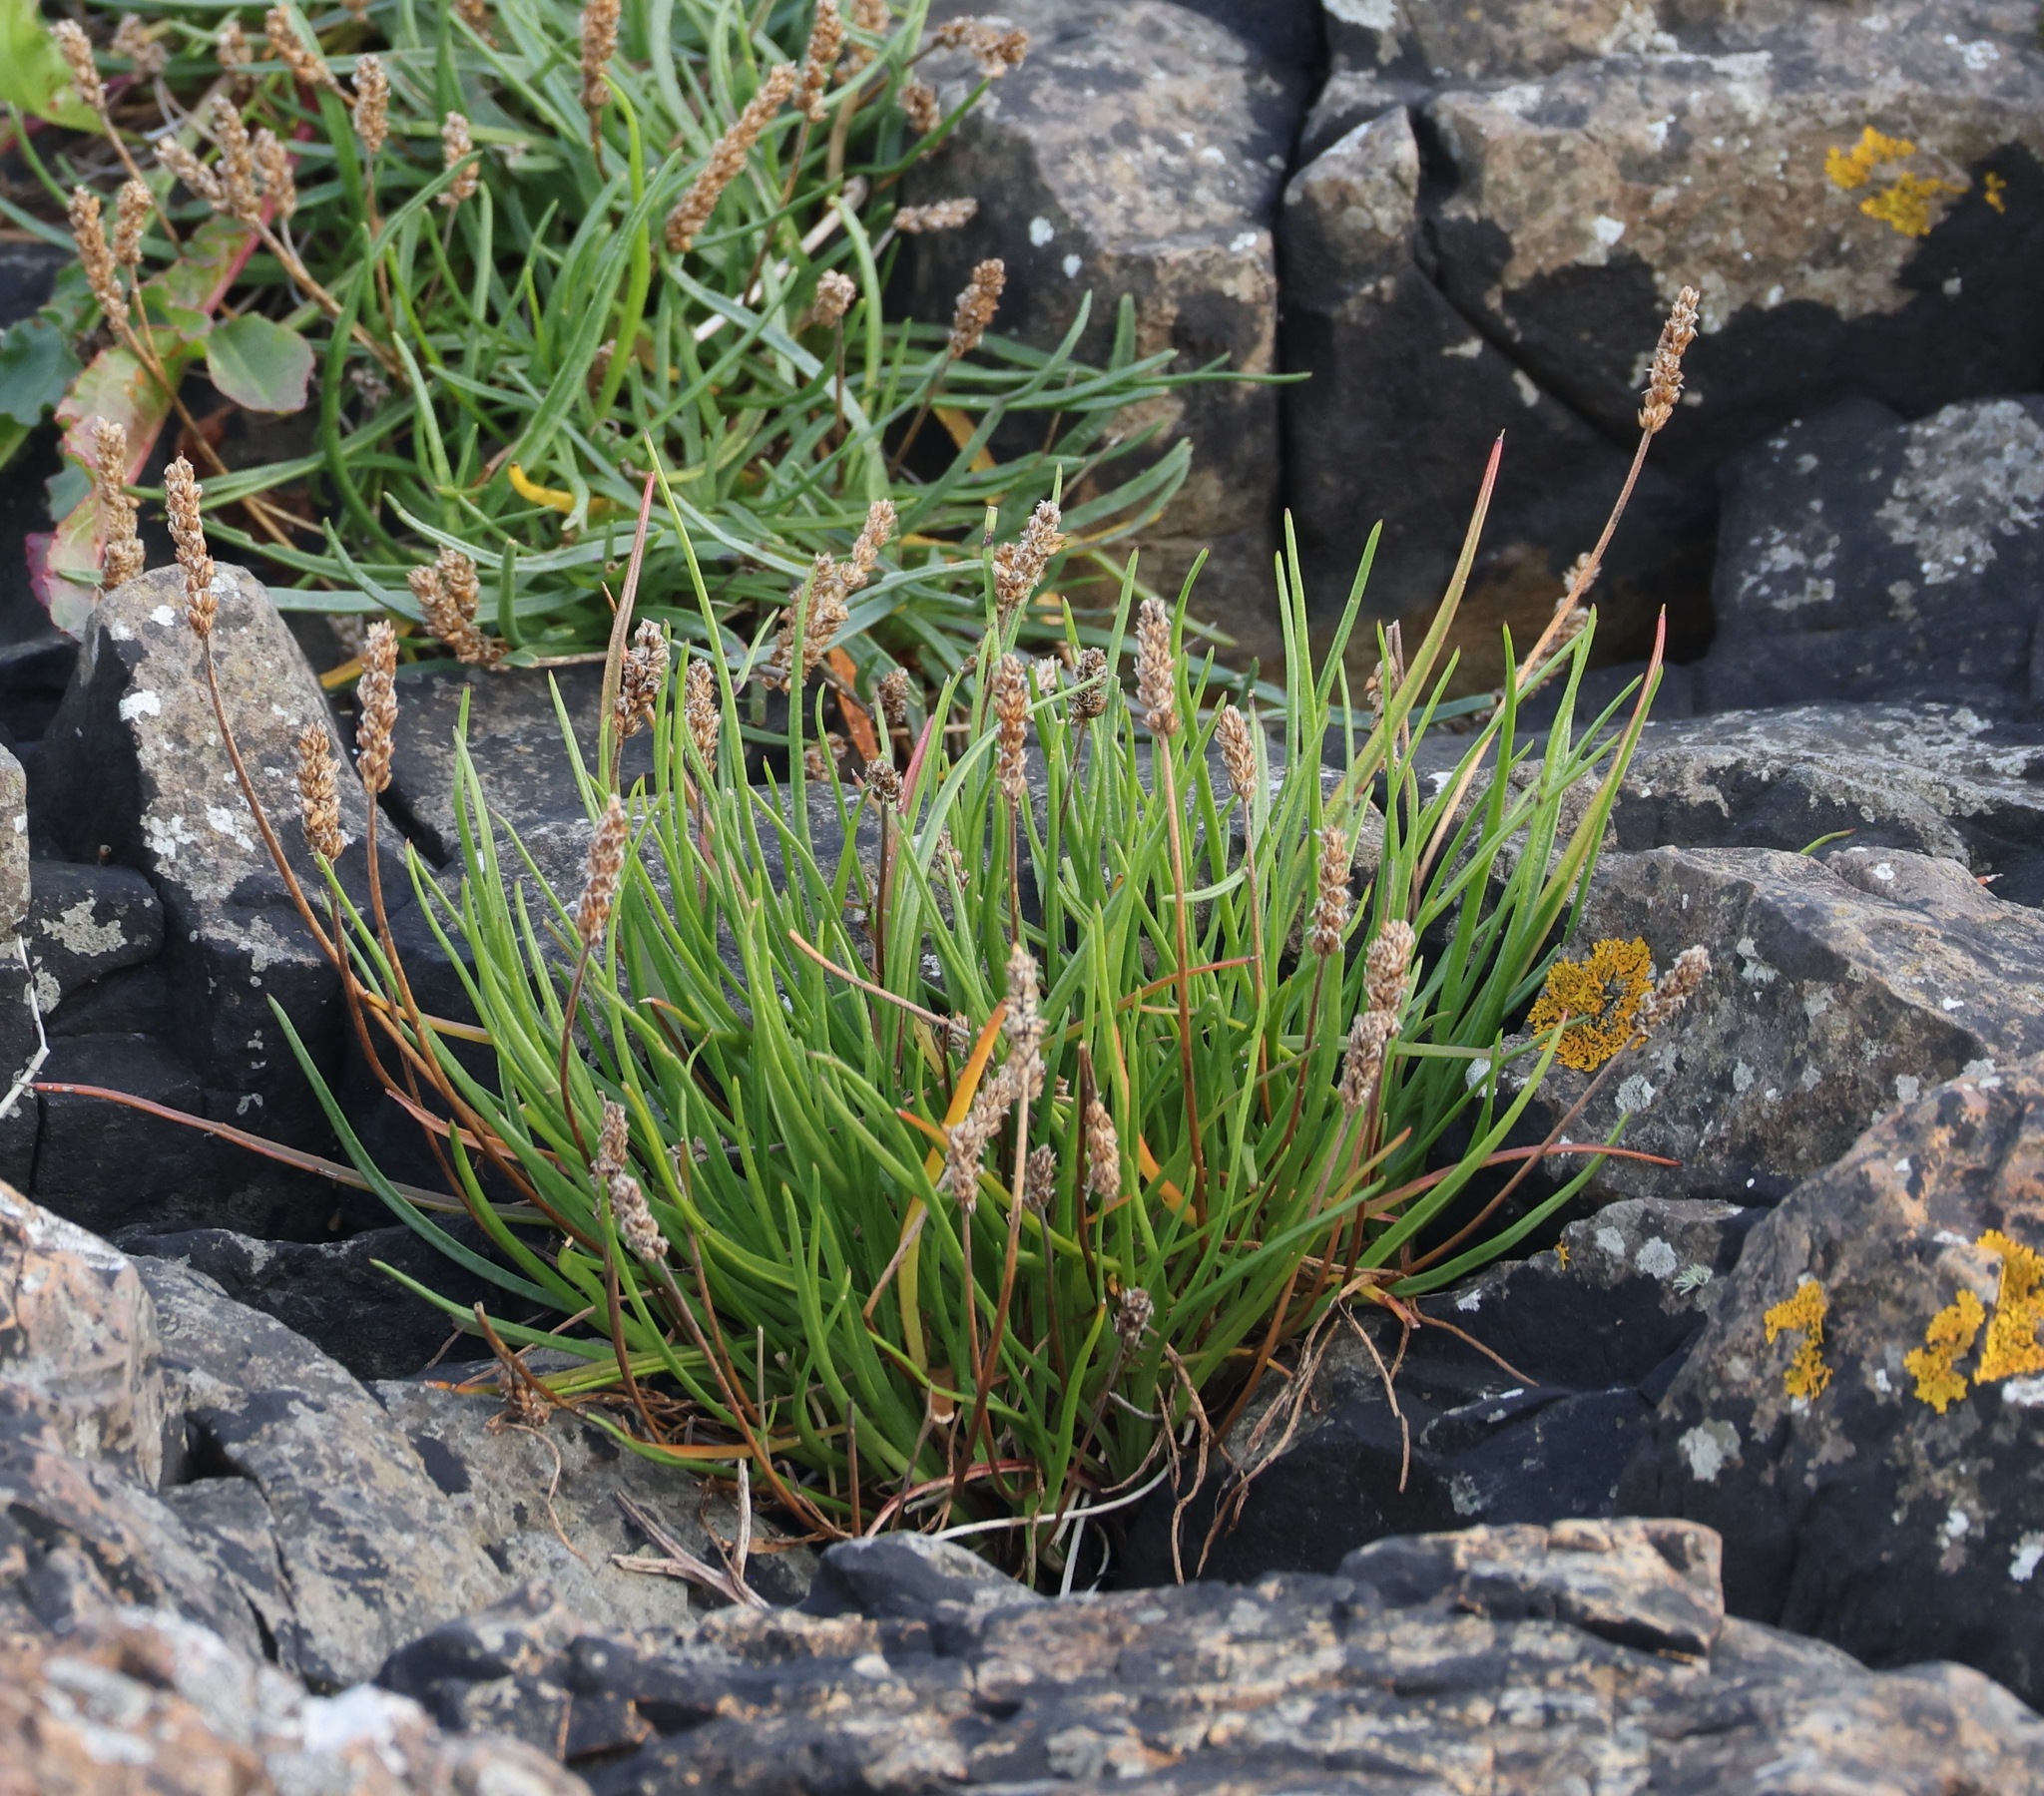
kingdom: Plantae
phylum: Tracheophyta
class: Magnoliopsida
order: Lamiales
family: Plantaginaceae
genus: Plantago
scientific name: Plantago maritima
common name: Sea plantain
